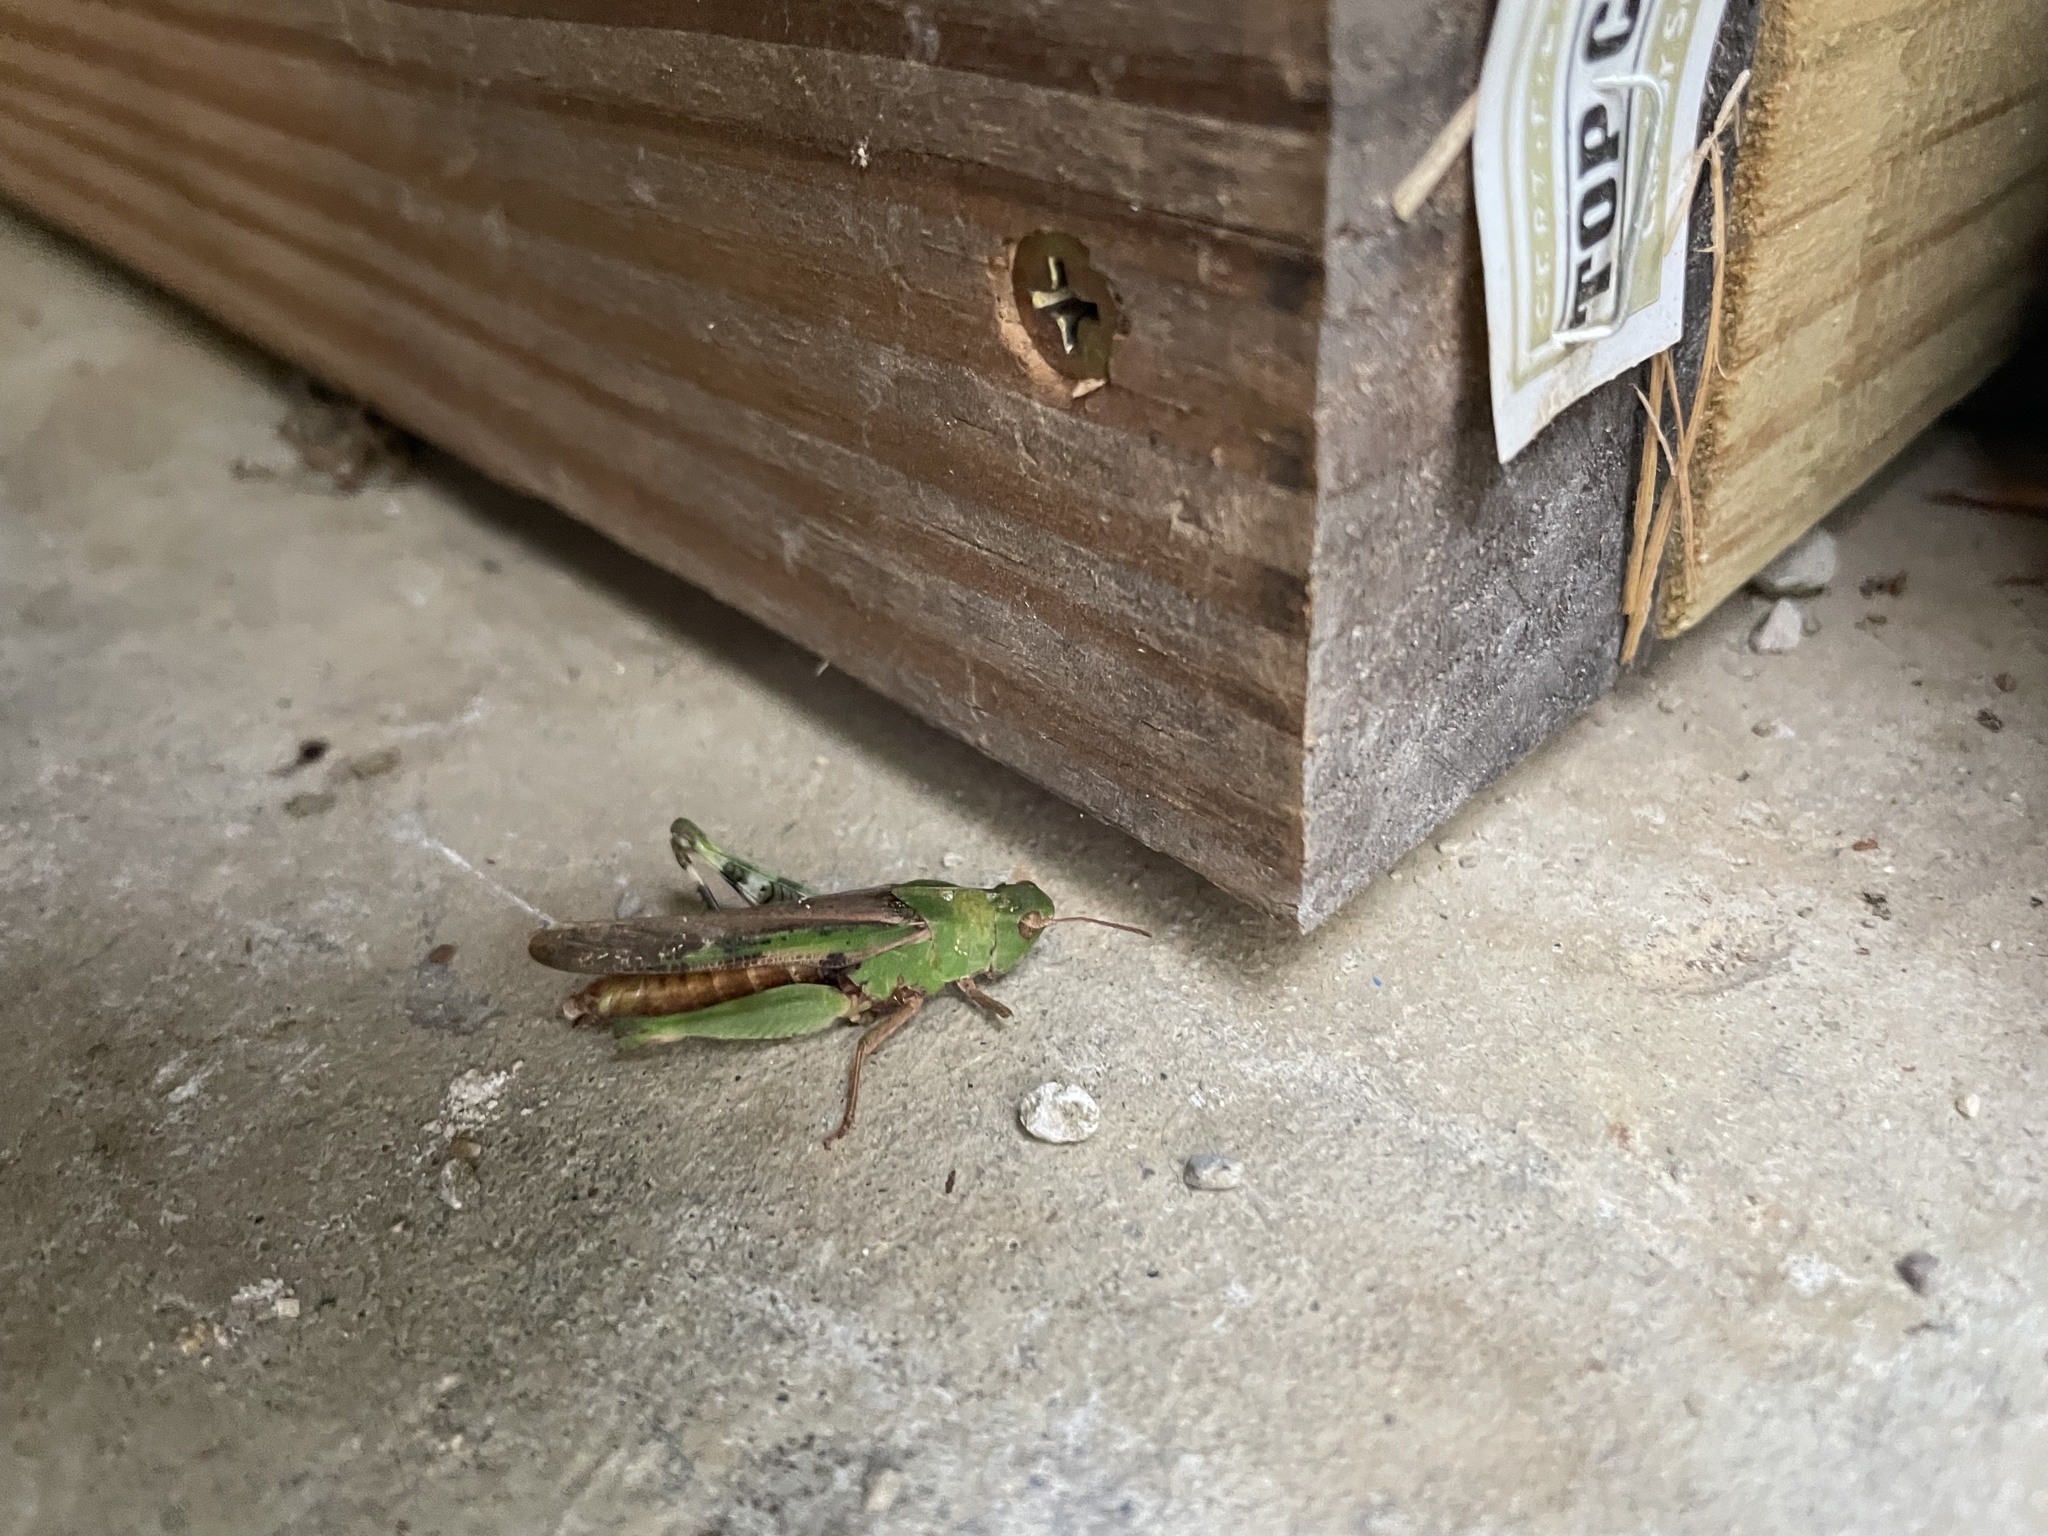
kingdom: Animalia
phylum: Arthropoda
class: Insecta
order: Orthoptera
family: Acrididae
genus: Chortophaga
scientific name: Chortophaga viridifasciata
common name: Green-striped grasshopper
